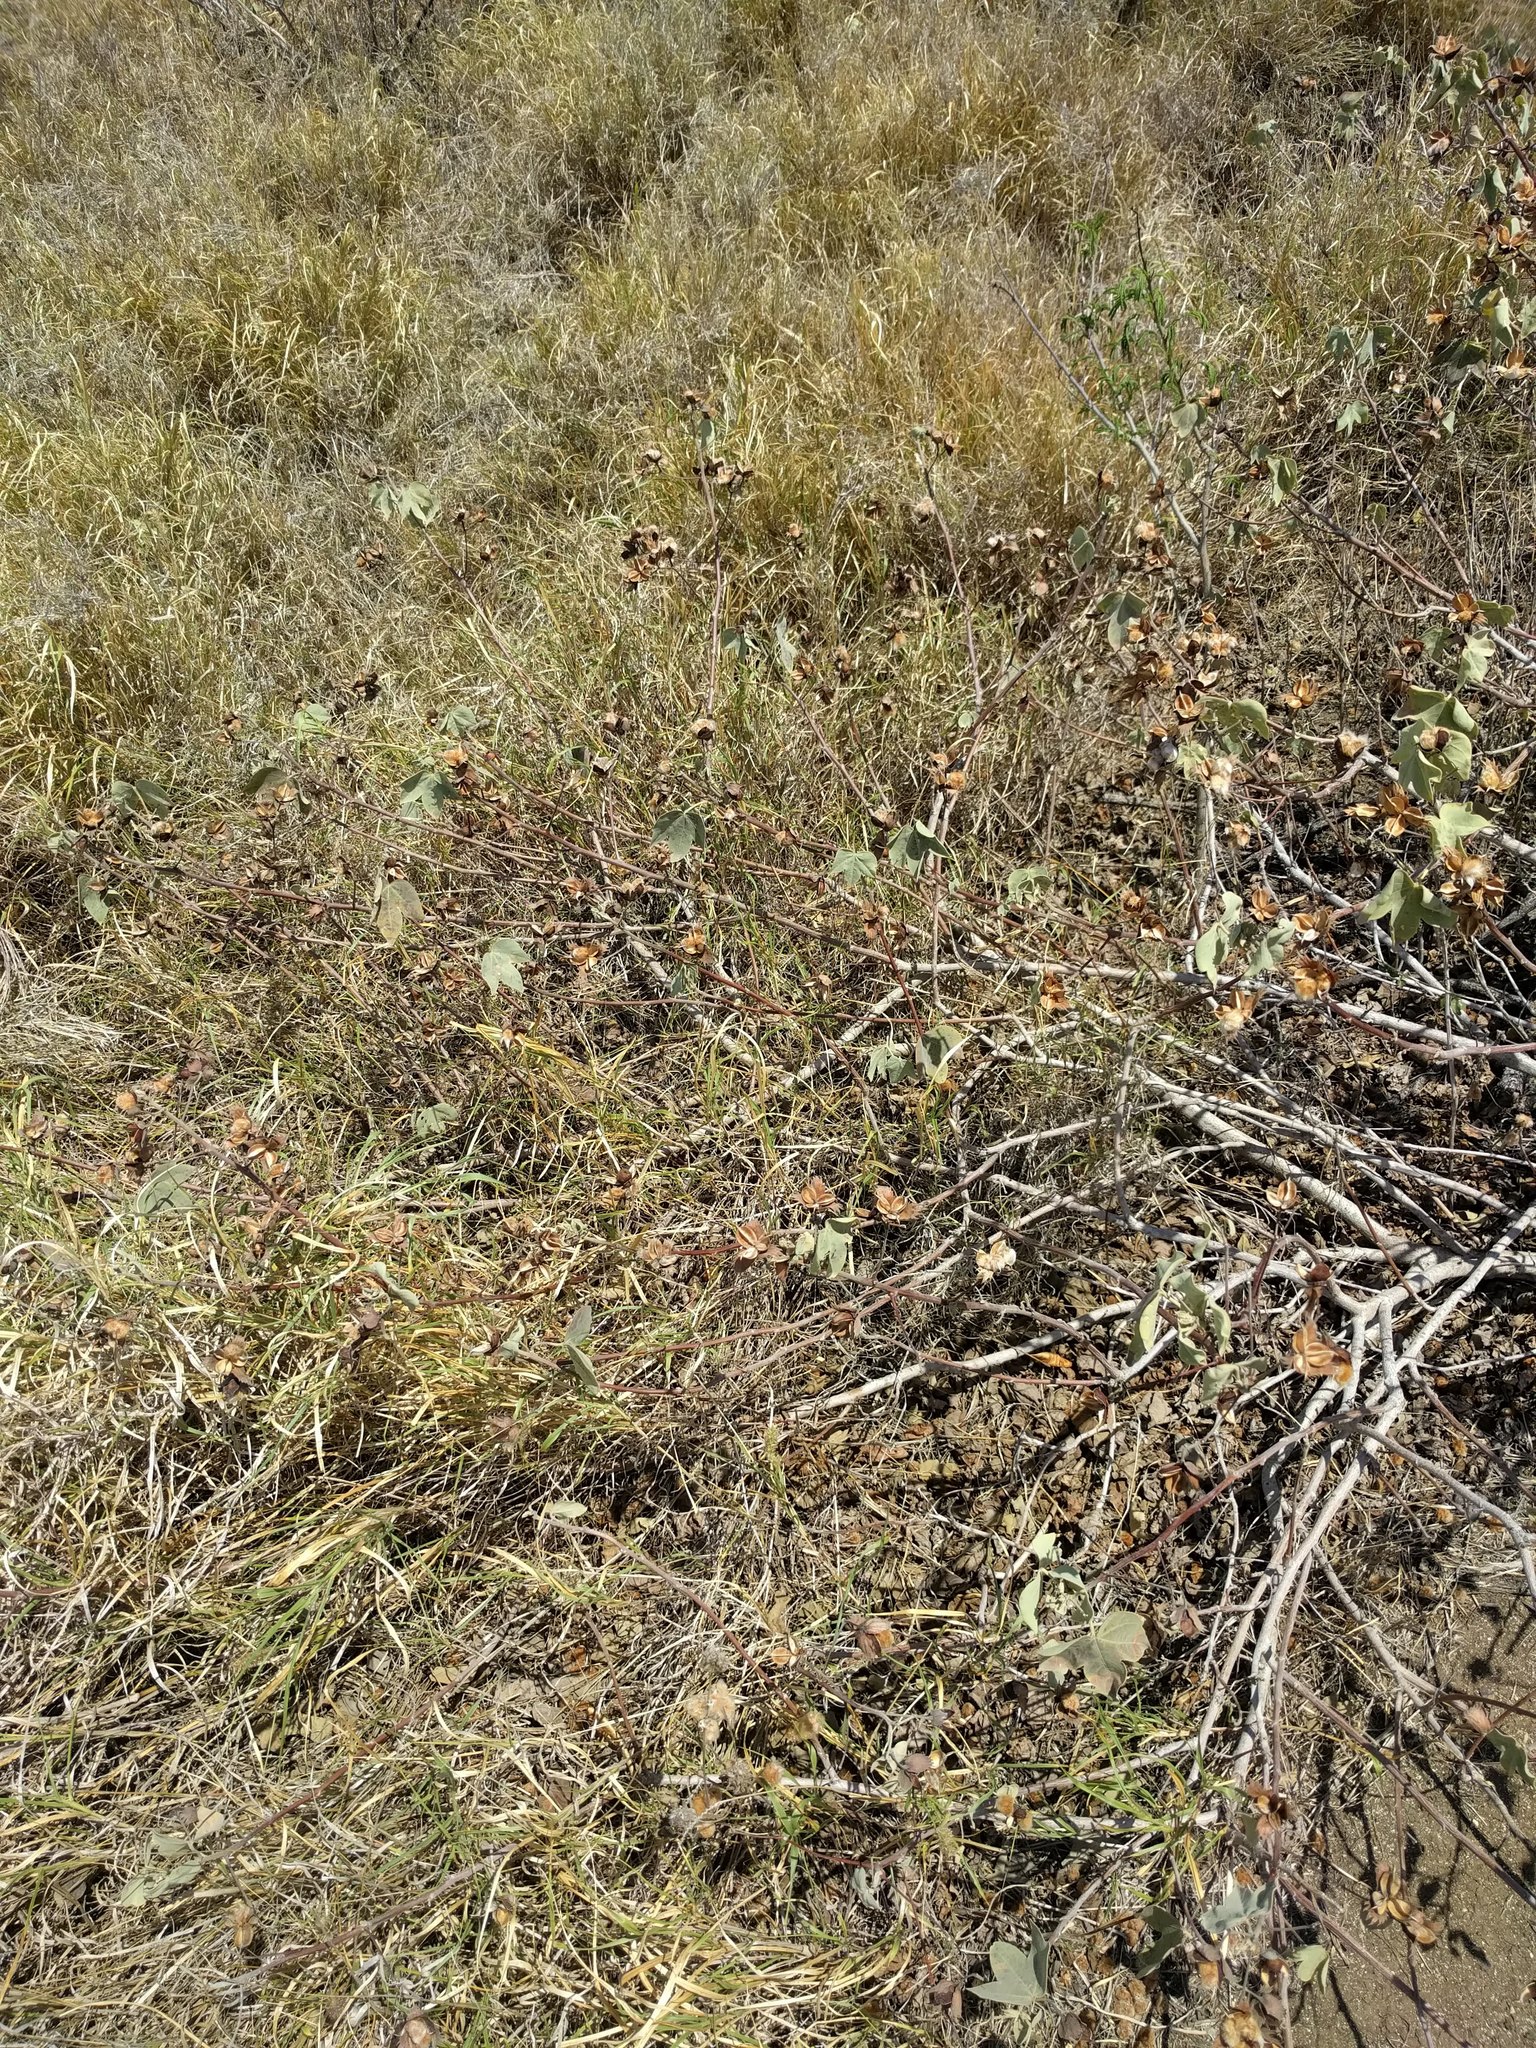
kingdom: Plantae
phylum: Tracheophyta
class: Magnoliopsida
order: Malvales
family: Malvaceae
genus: Gossypium
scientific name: Gossypium tomentosum
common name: Hawaiian cotton
